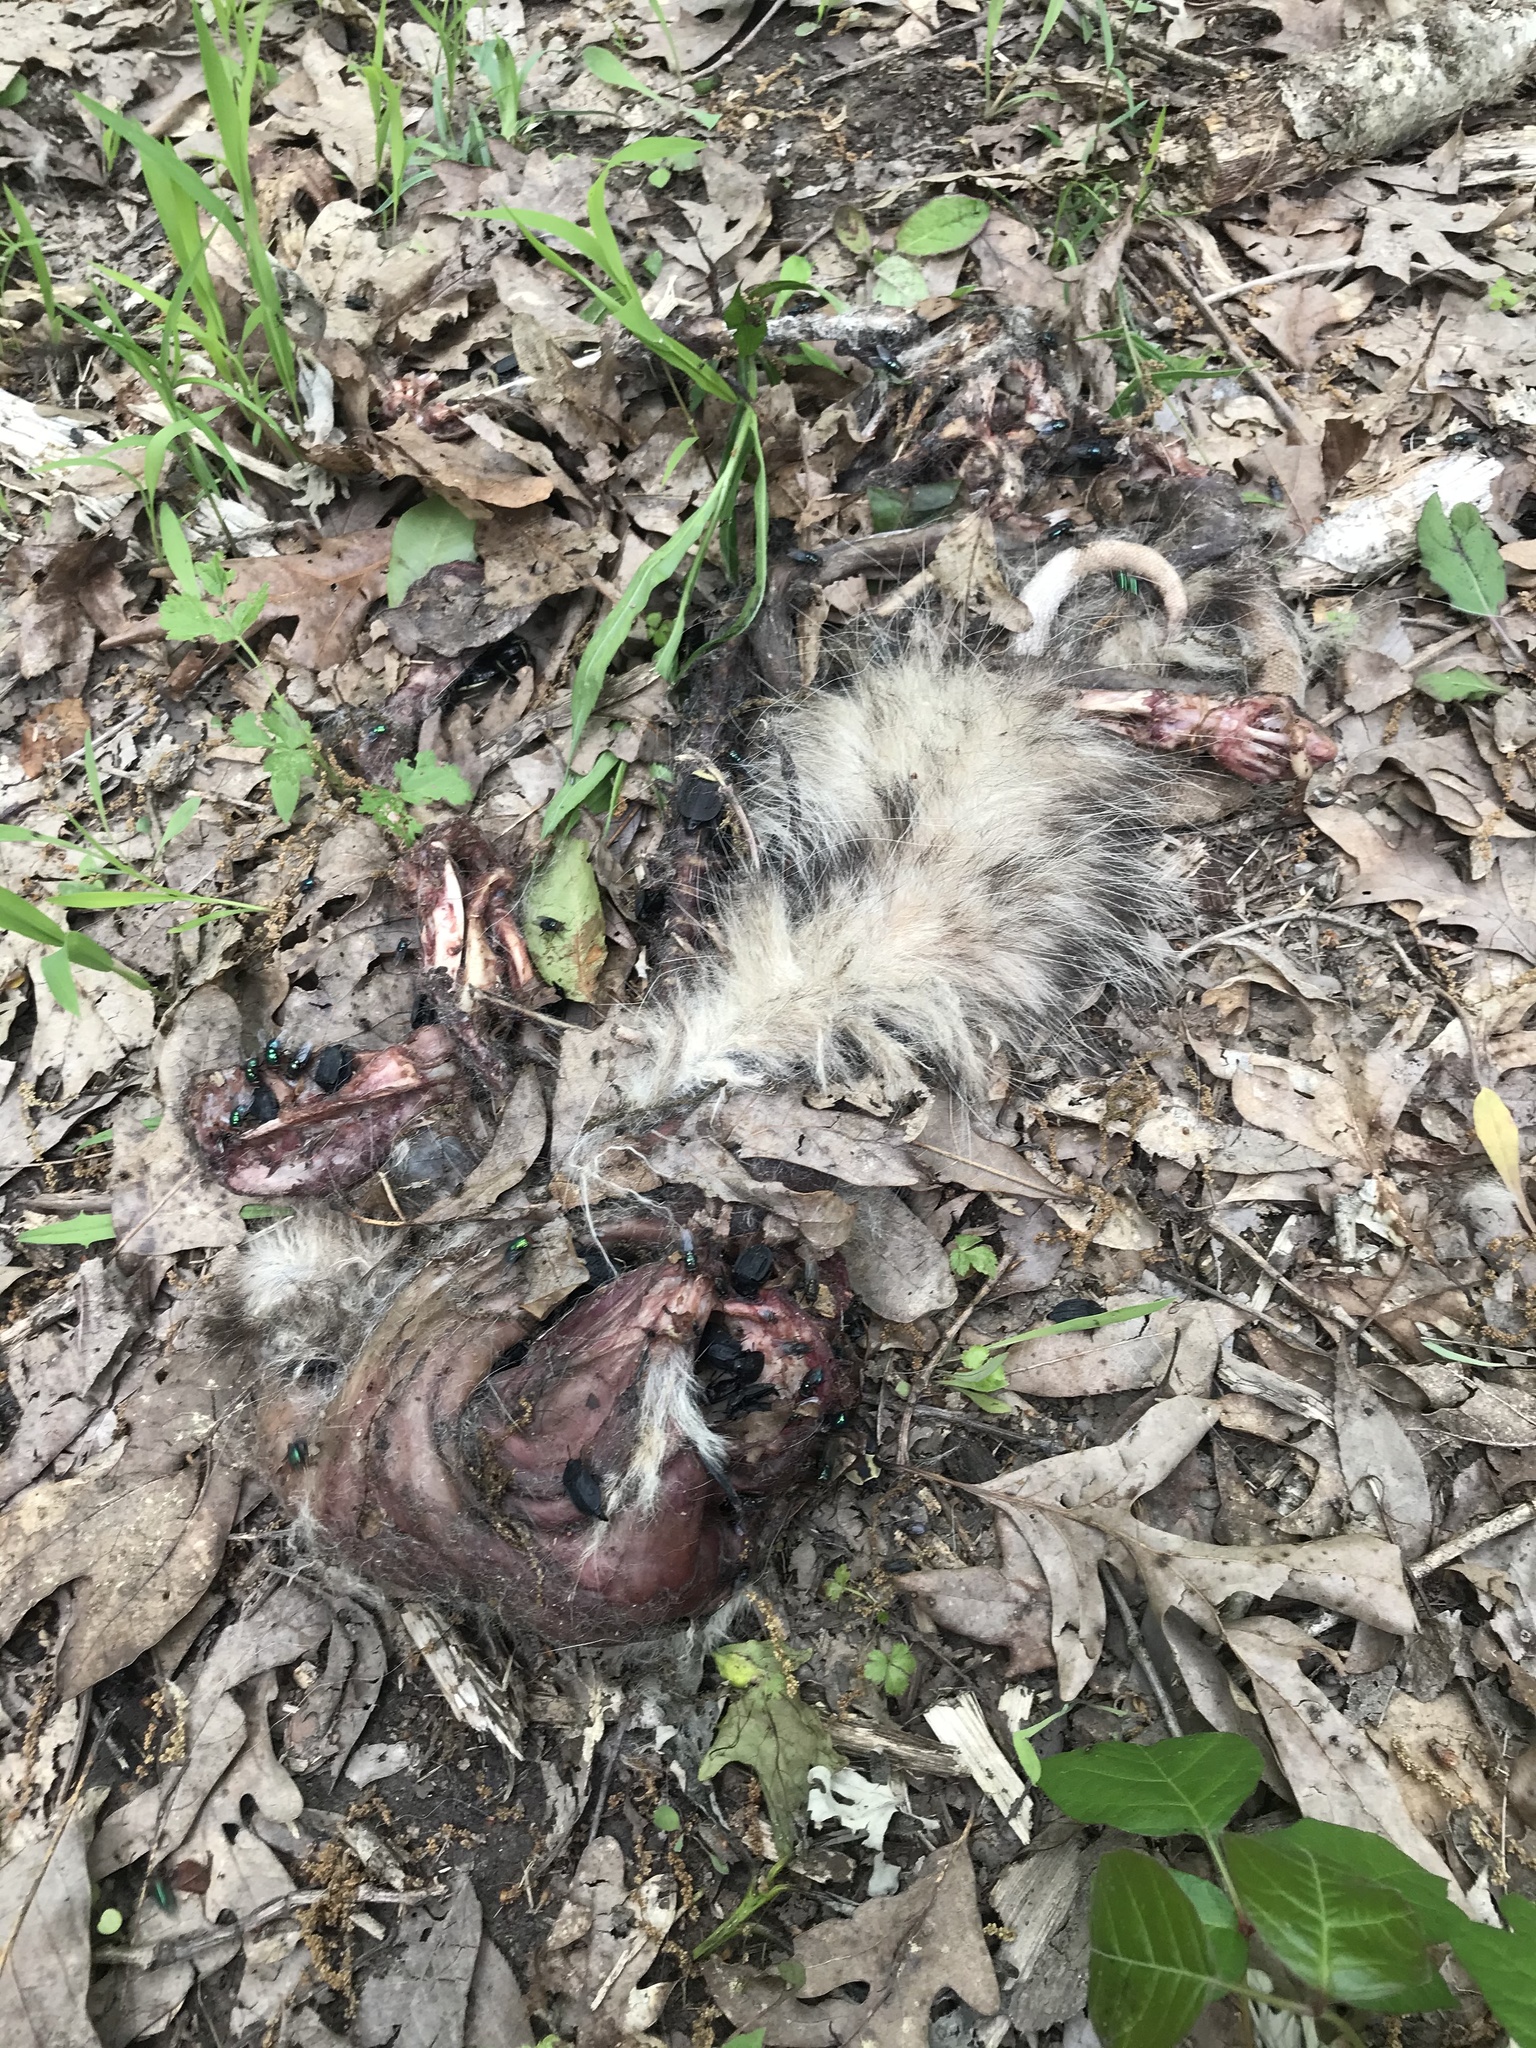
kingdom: Animalia
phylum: Chordata
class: Mammalia
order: Didelphimorphia
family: Didelphidae
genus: Didelphis
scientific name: Didelphis virginiana
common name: Virginia opossum
